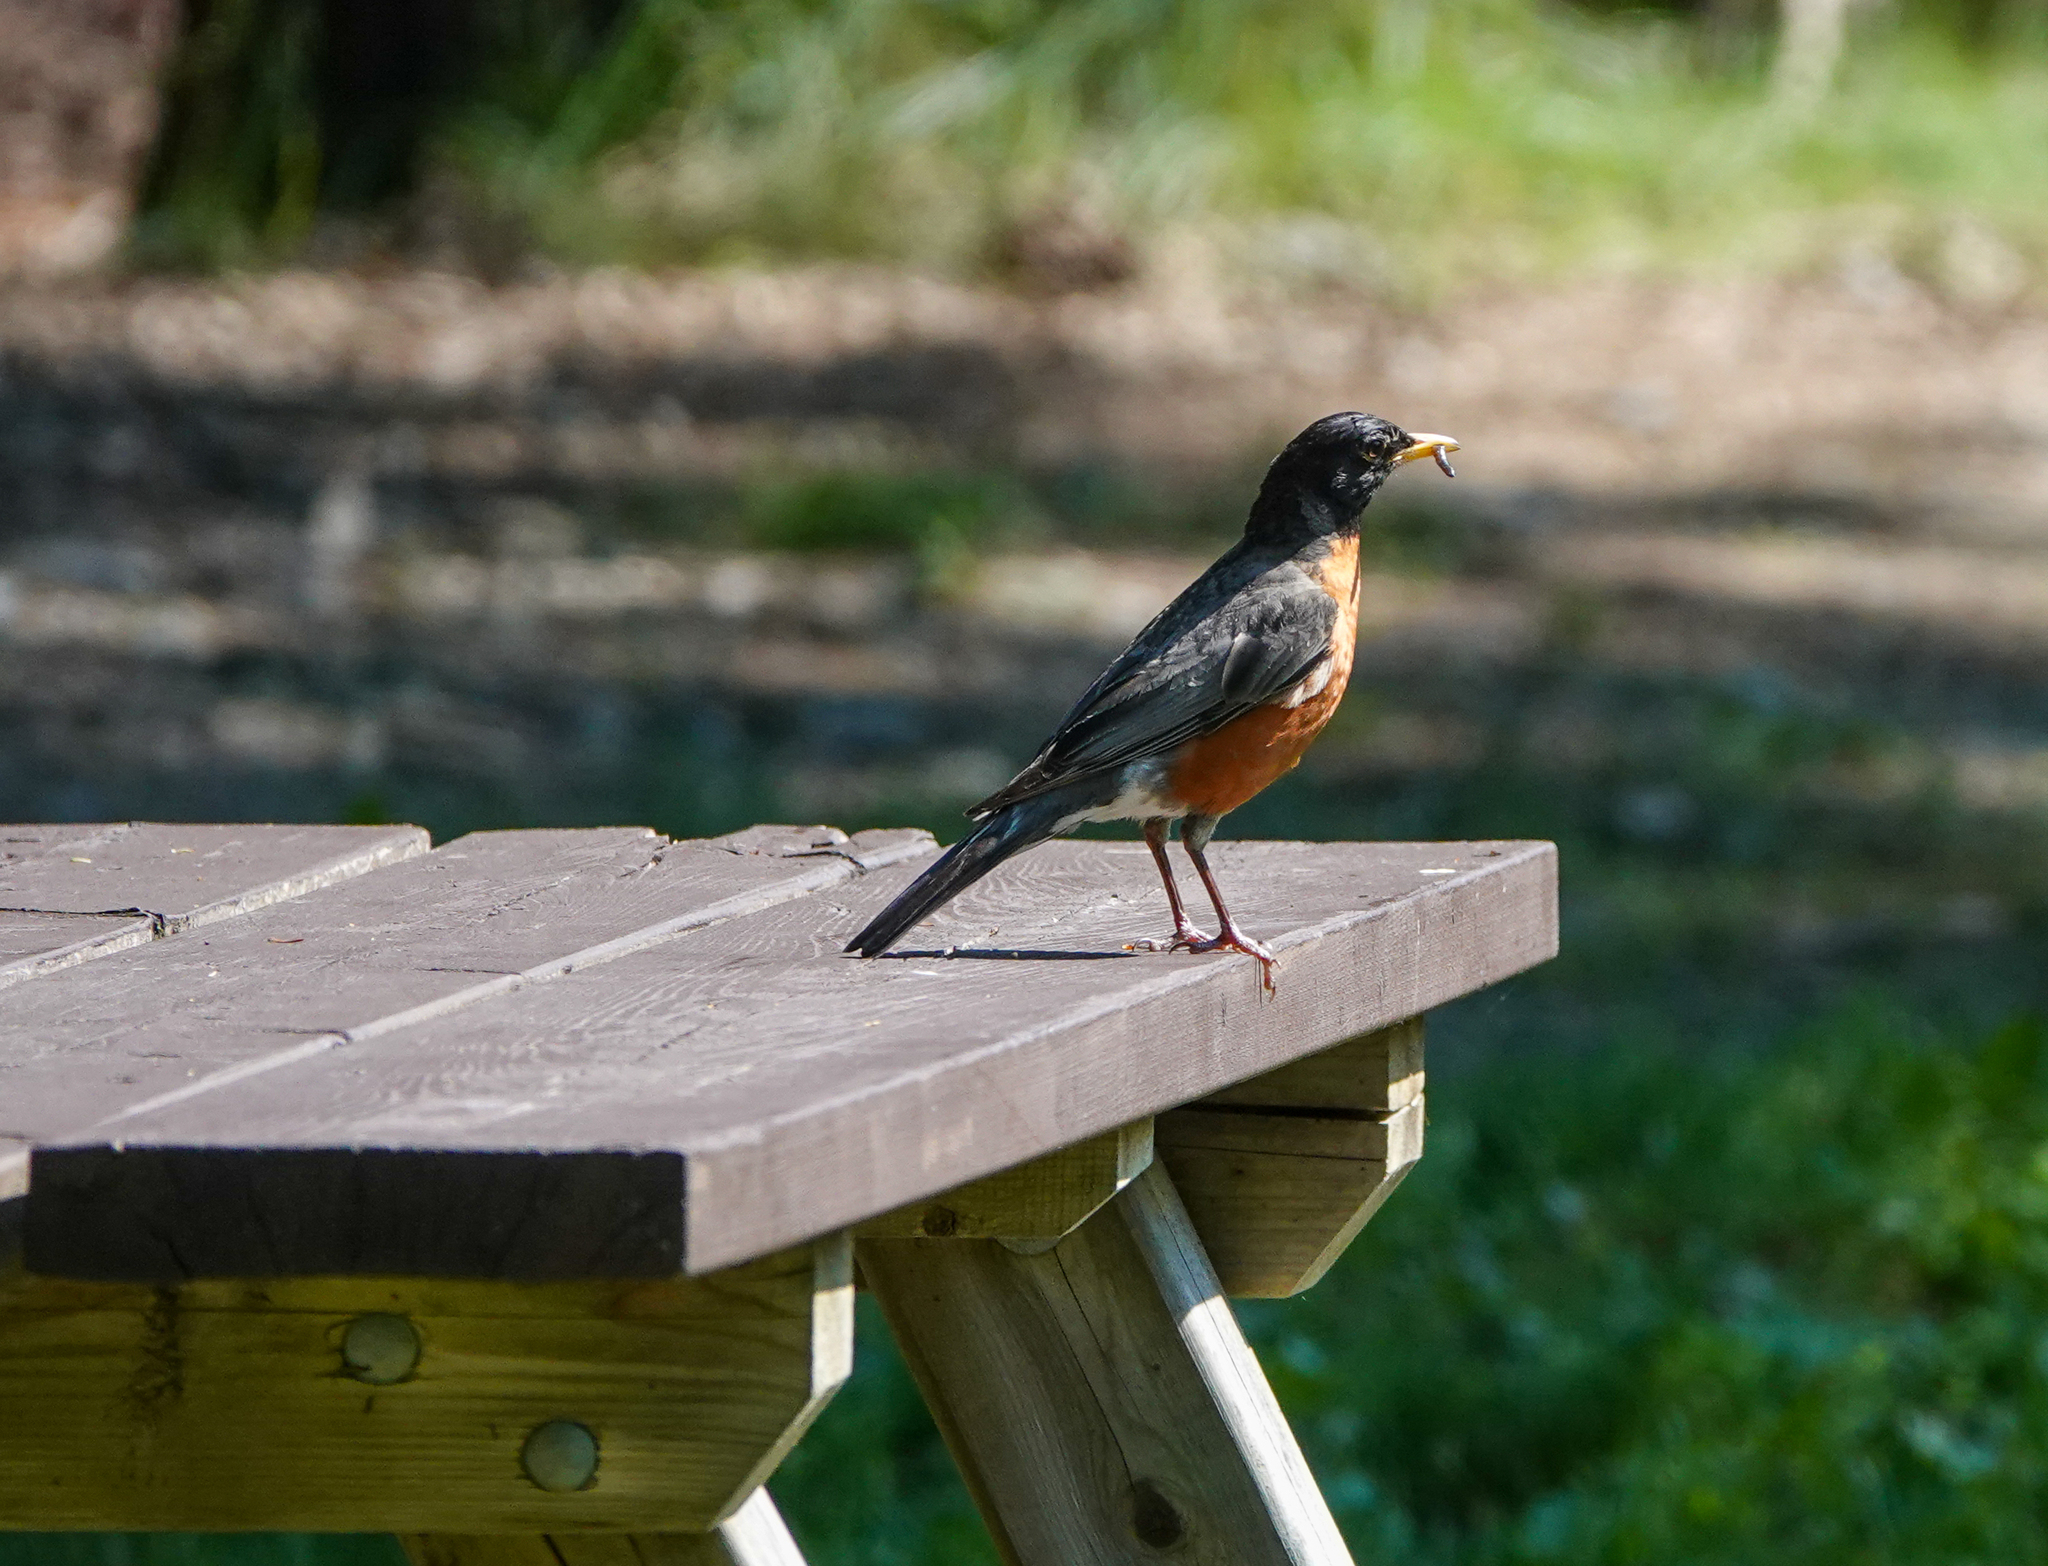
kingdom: Animalia
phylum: Chordata
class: Aves
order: Passeriformes
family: Turdidae
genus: Turdus
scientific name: Turdus migratorius
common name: American robin
